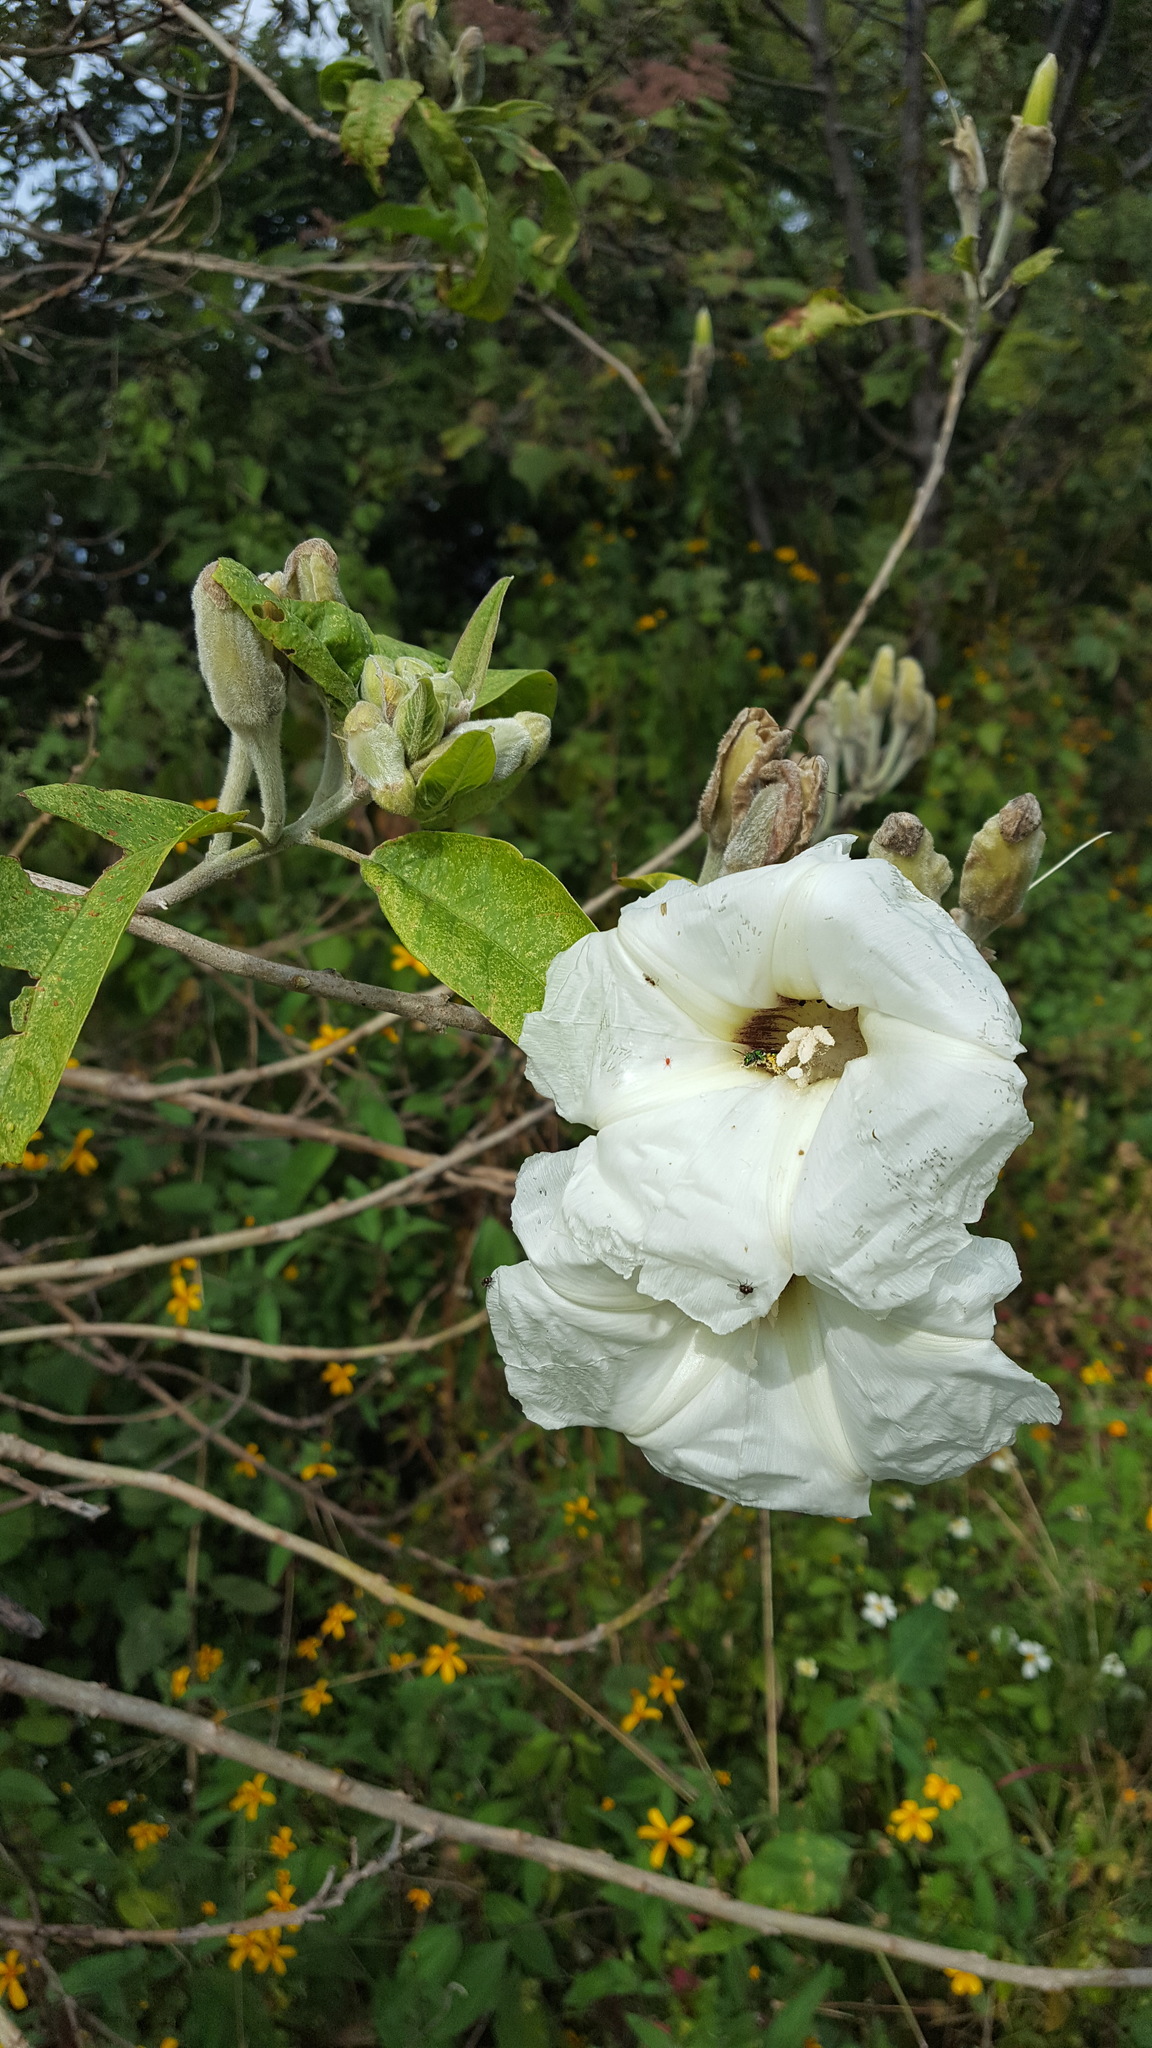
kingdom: Plantae
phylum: Tracheophyta
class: Magnoliopsida
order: Solanales
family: Convolvulaceae
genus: Ipomoea
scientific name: Ipomoea murucoides
